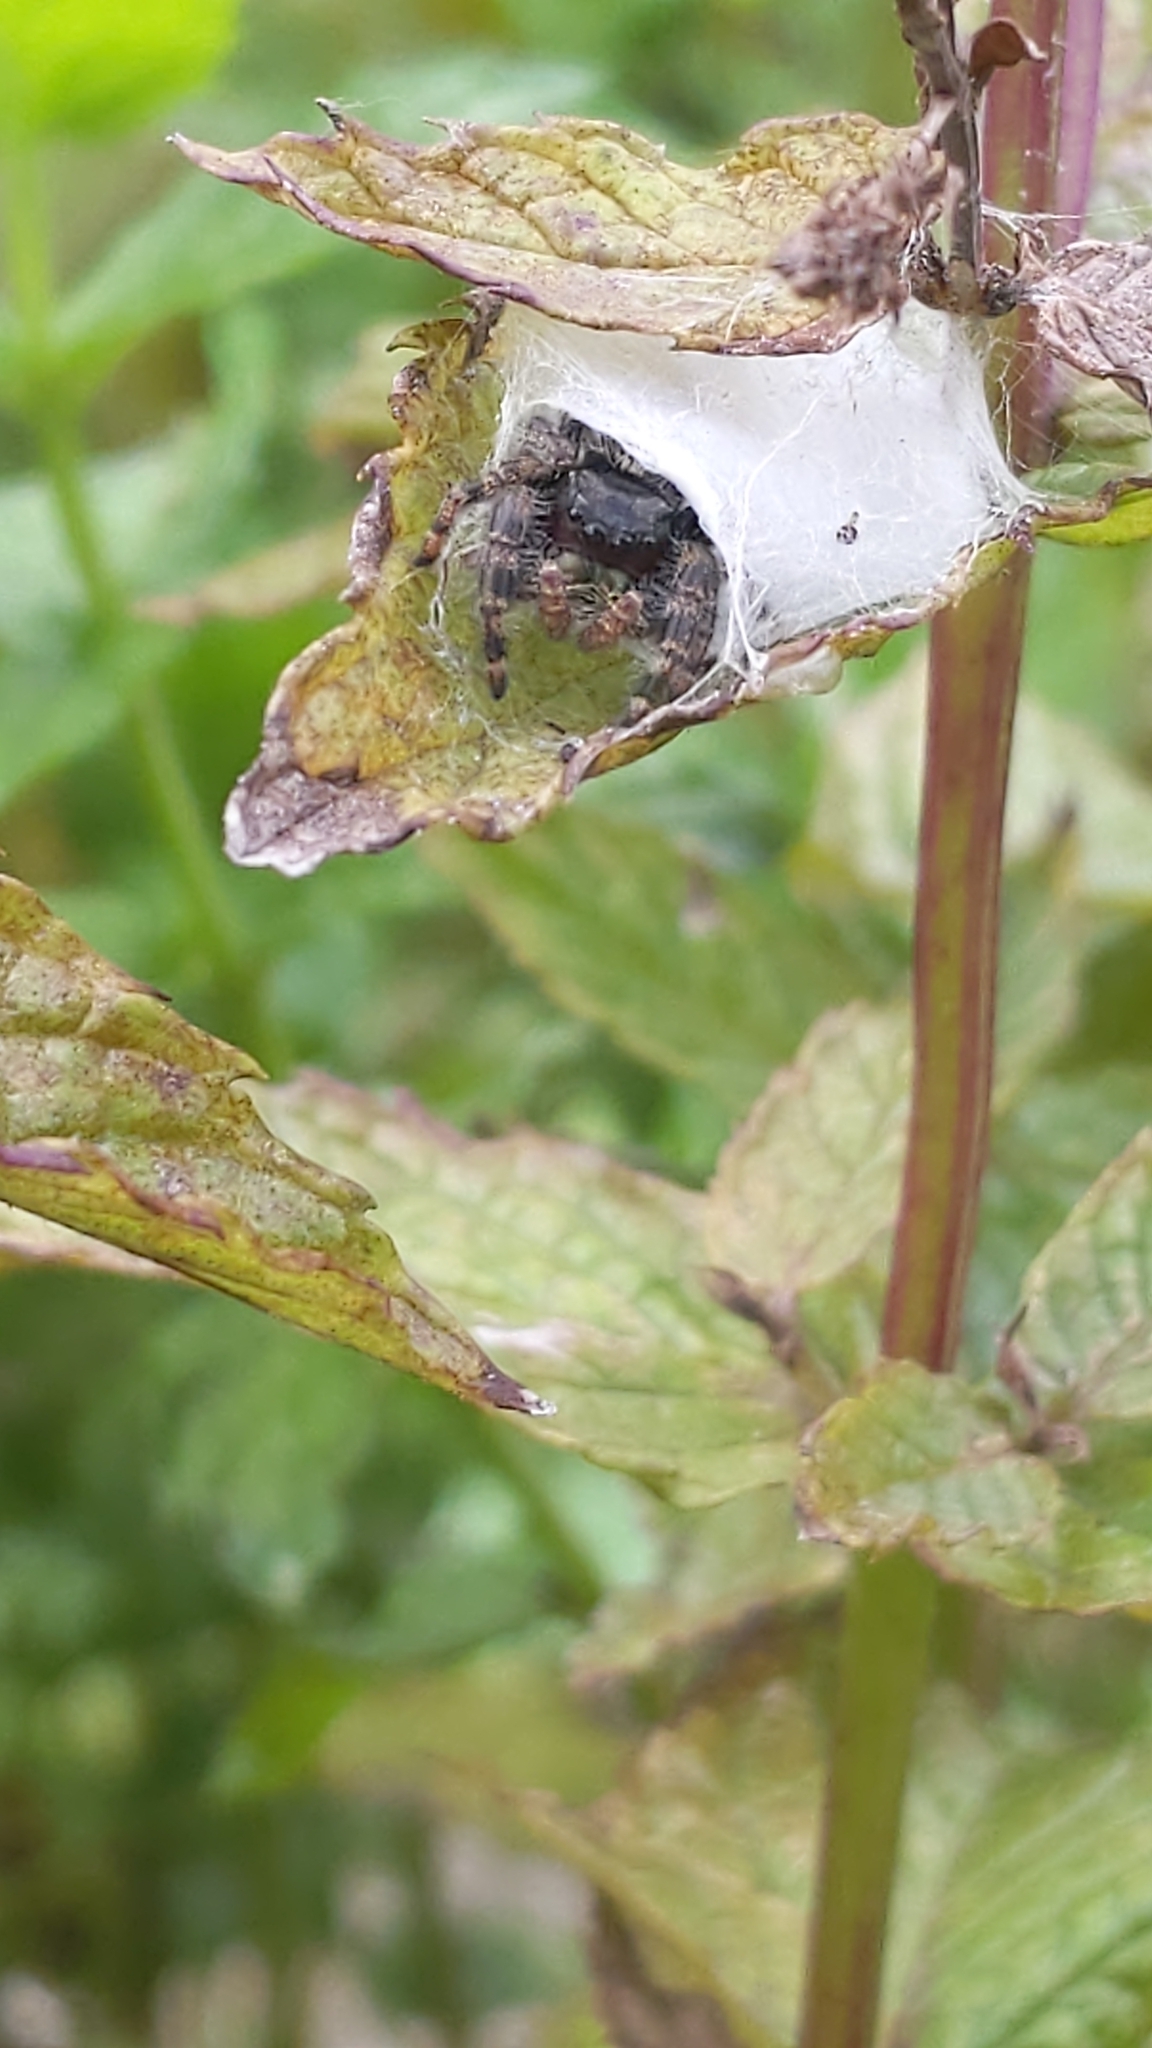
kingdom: Animalia
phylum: Arthropoda
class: Arachnida
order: Araneae
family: Salticidae
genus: Phidippus
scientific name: Phidippus
